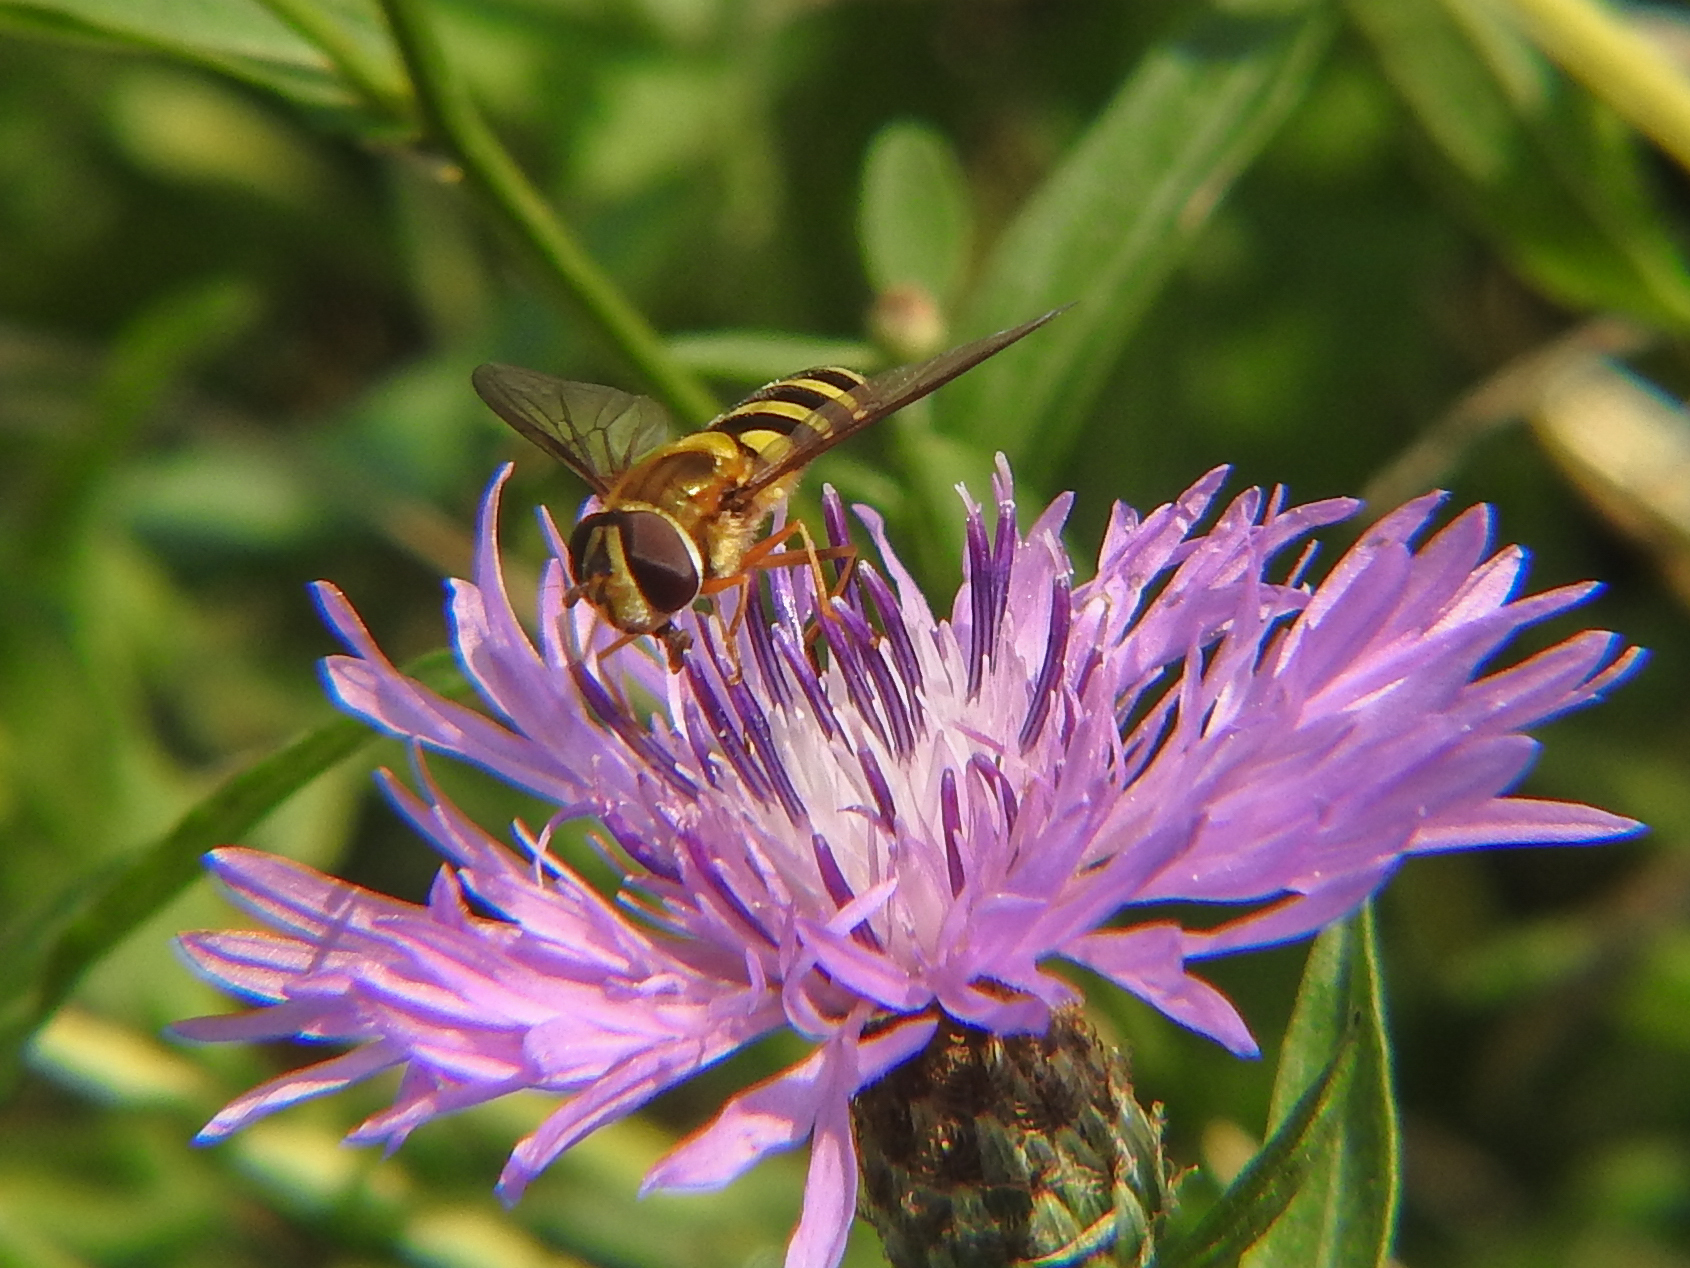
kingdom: Animalia
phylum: Arthropoda
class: Insecta
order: Diptera
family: Syrphidae
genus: Syrphus
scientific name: Syrphus ribesii
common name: Common flower fly
